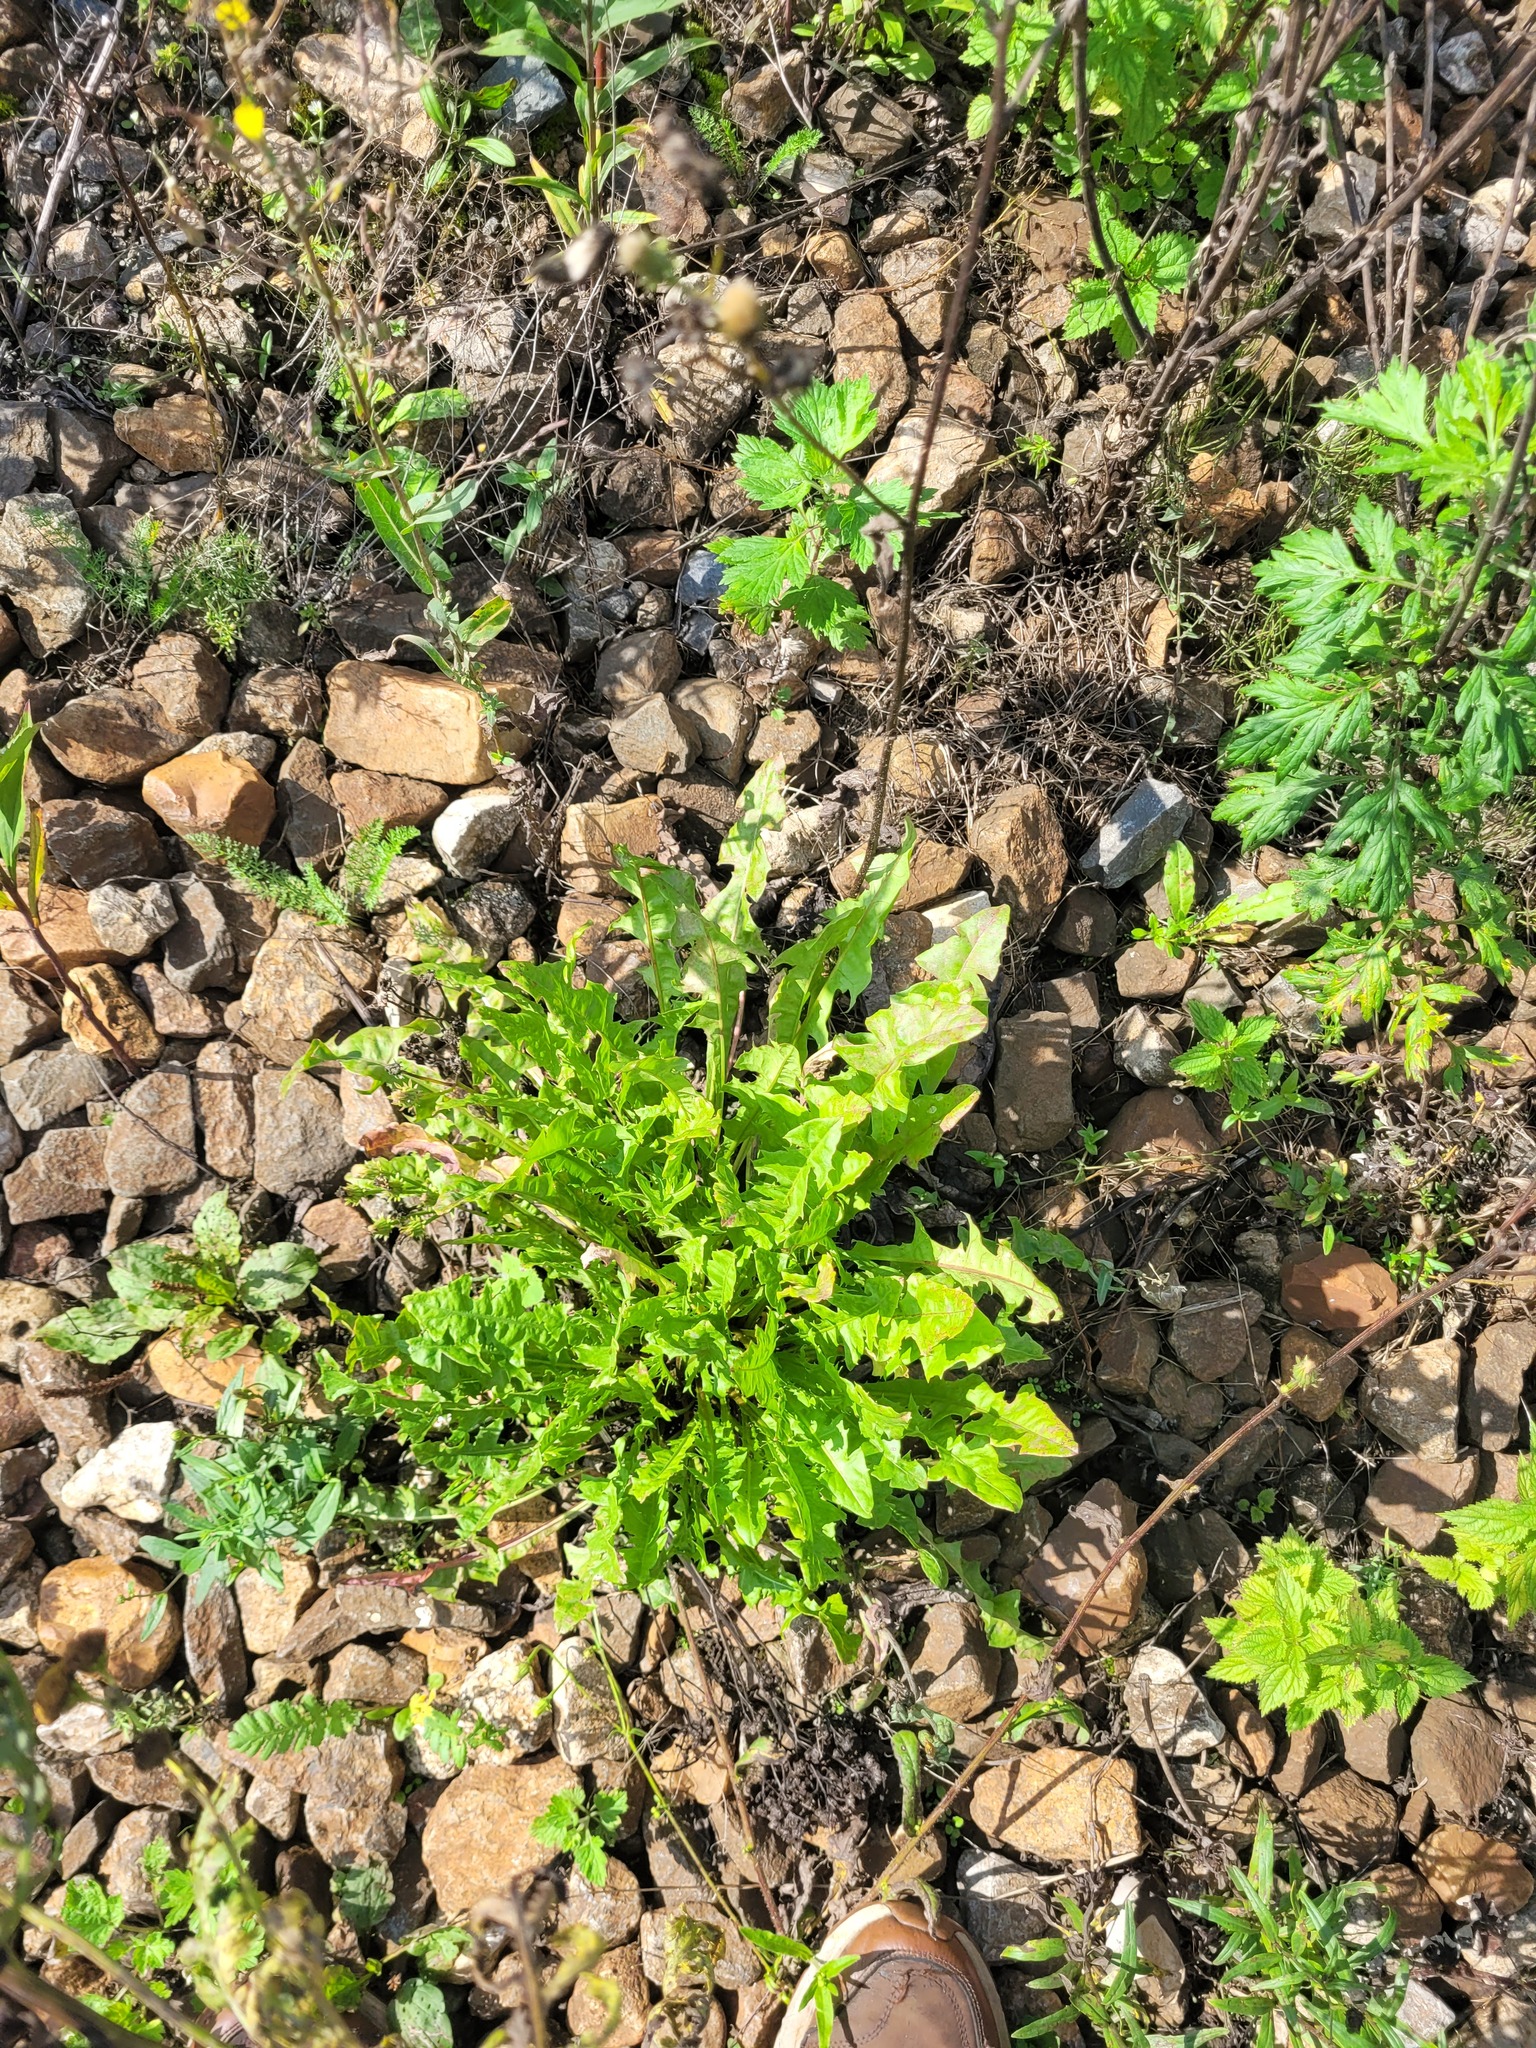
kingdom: Plantae
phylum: Tracheophyta
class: Magnoliopsida
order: Asterales
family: Asteraceae
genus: Taraxacum
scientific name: Taraxacum officinale
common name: Common dandelion
